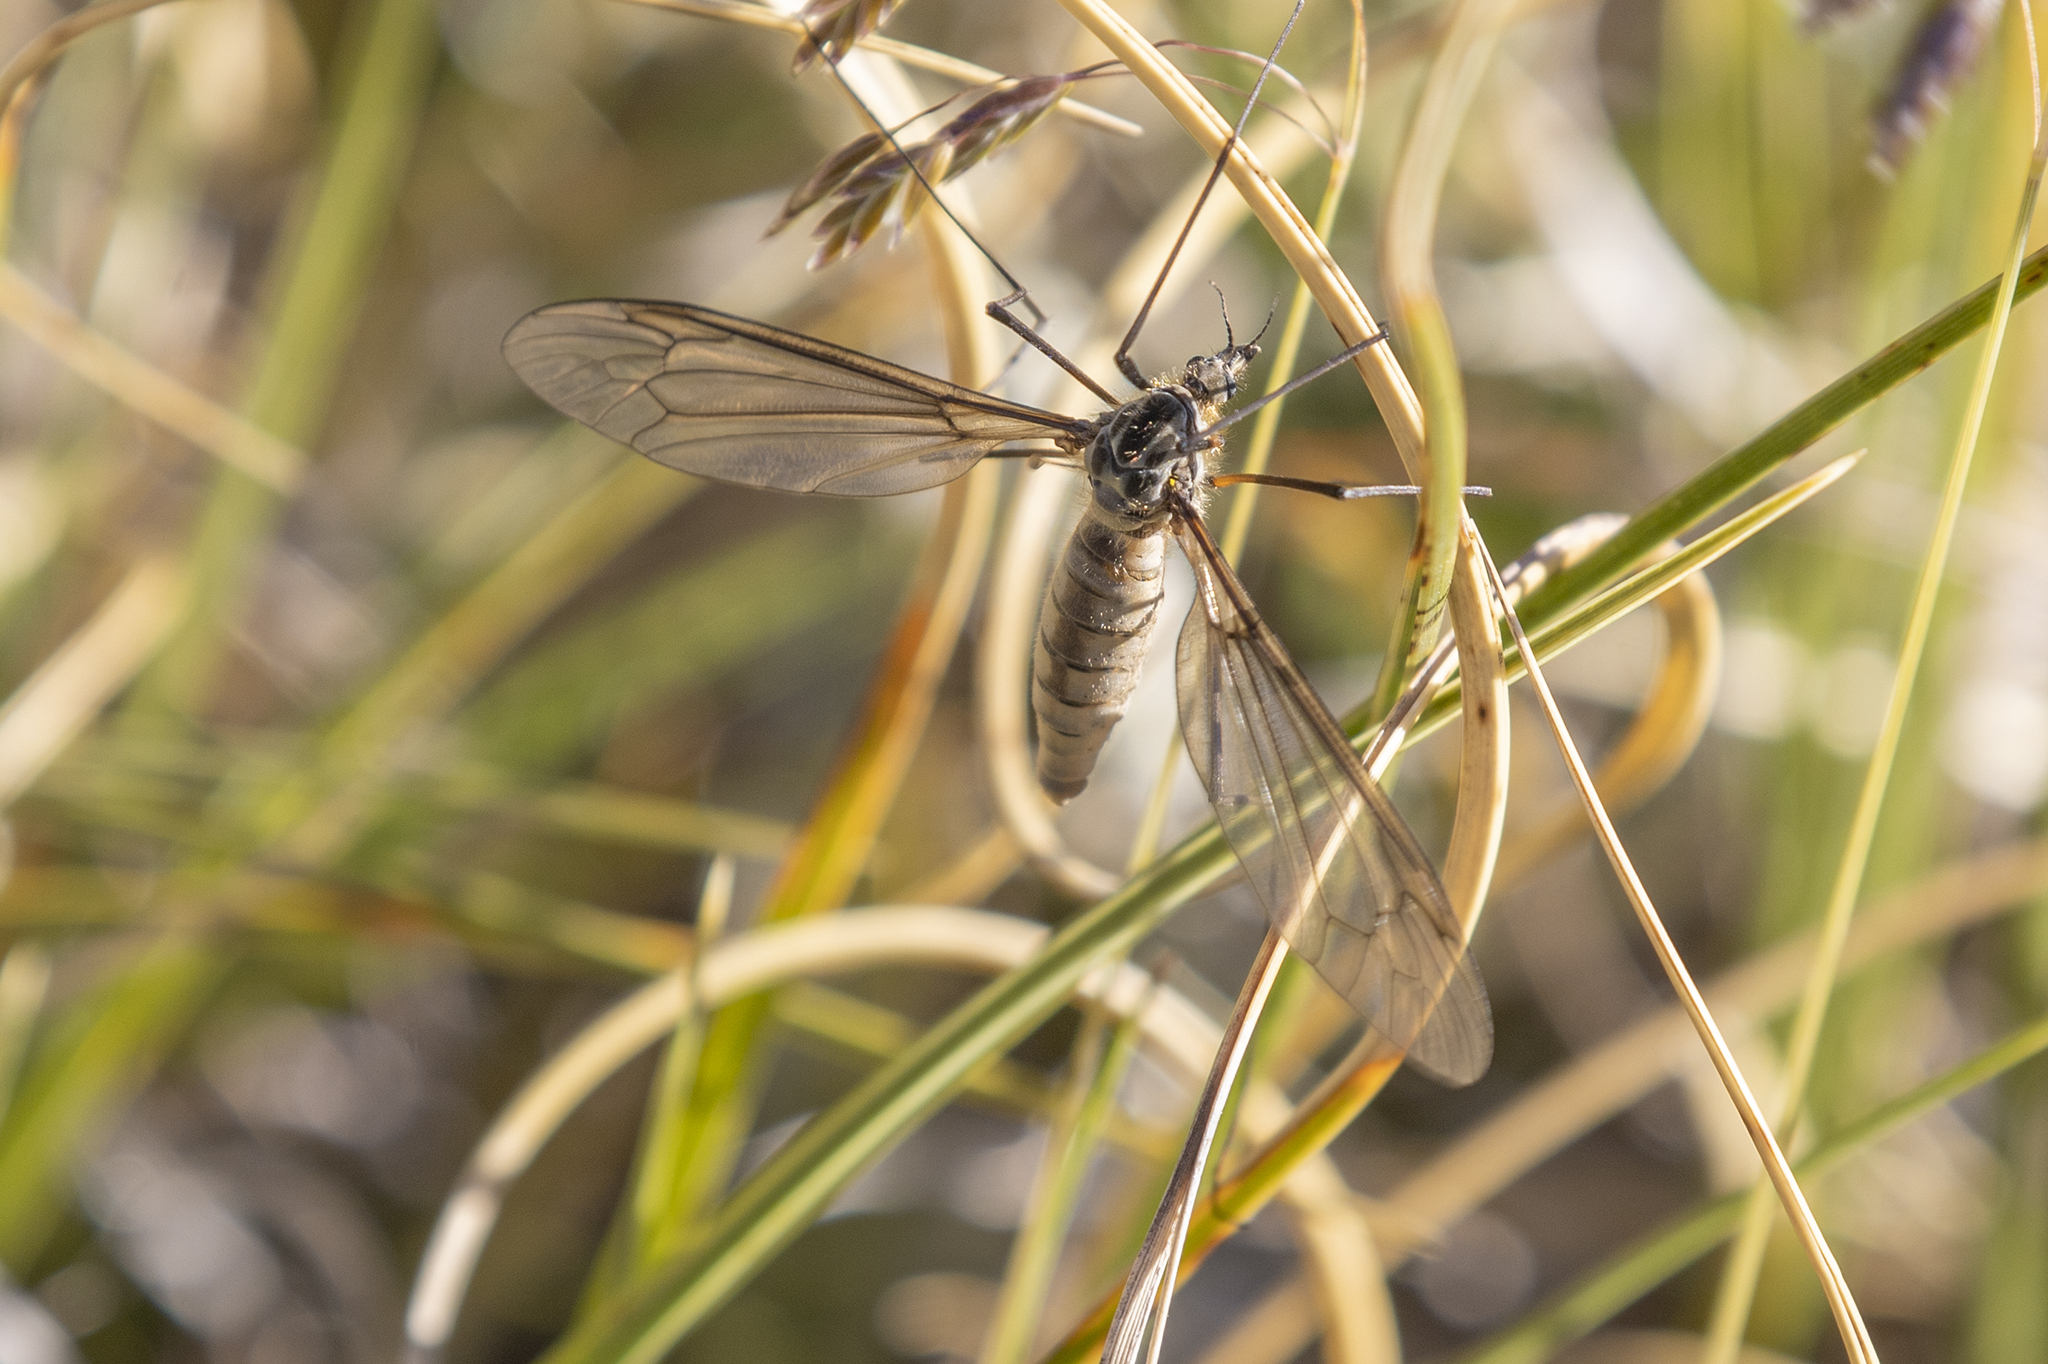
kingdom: Animalia
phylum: Arthropoda
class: Insecta
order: Diptera
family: Tipulidae
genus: Leptotarsus
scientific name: Leptotarsus montanus
